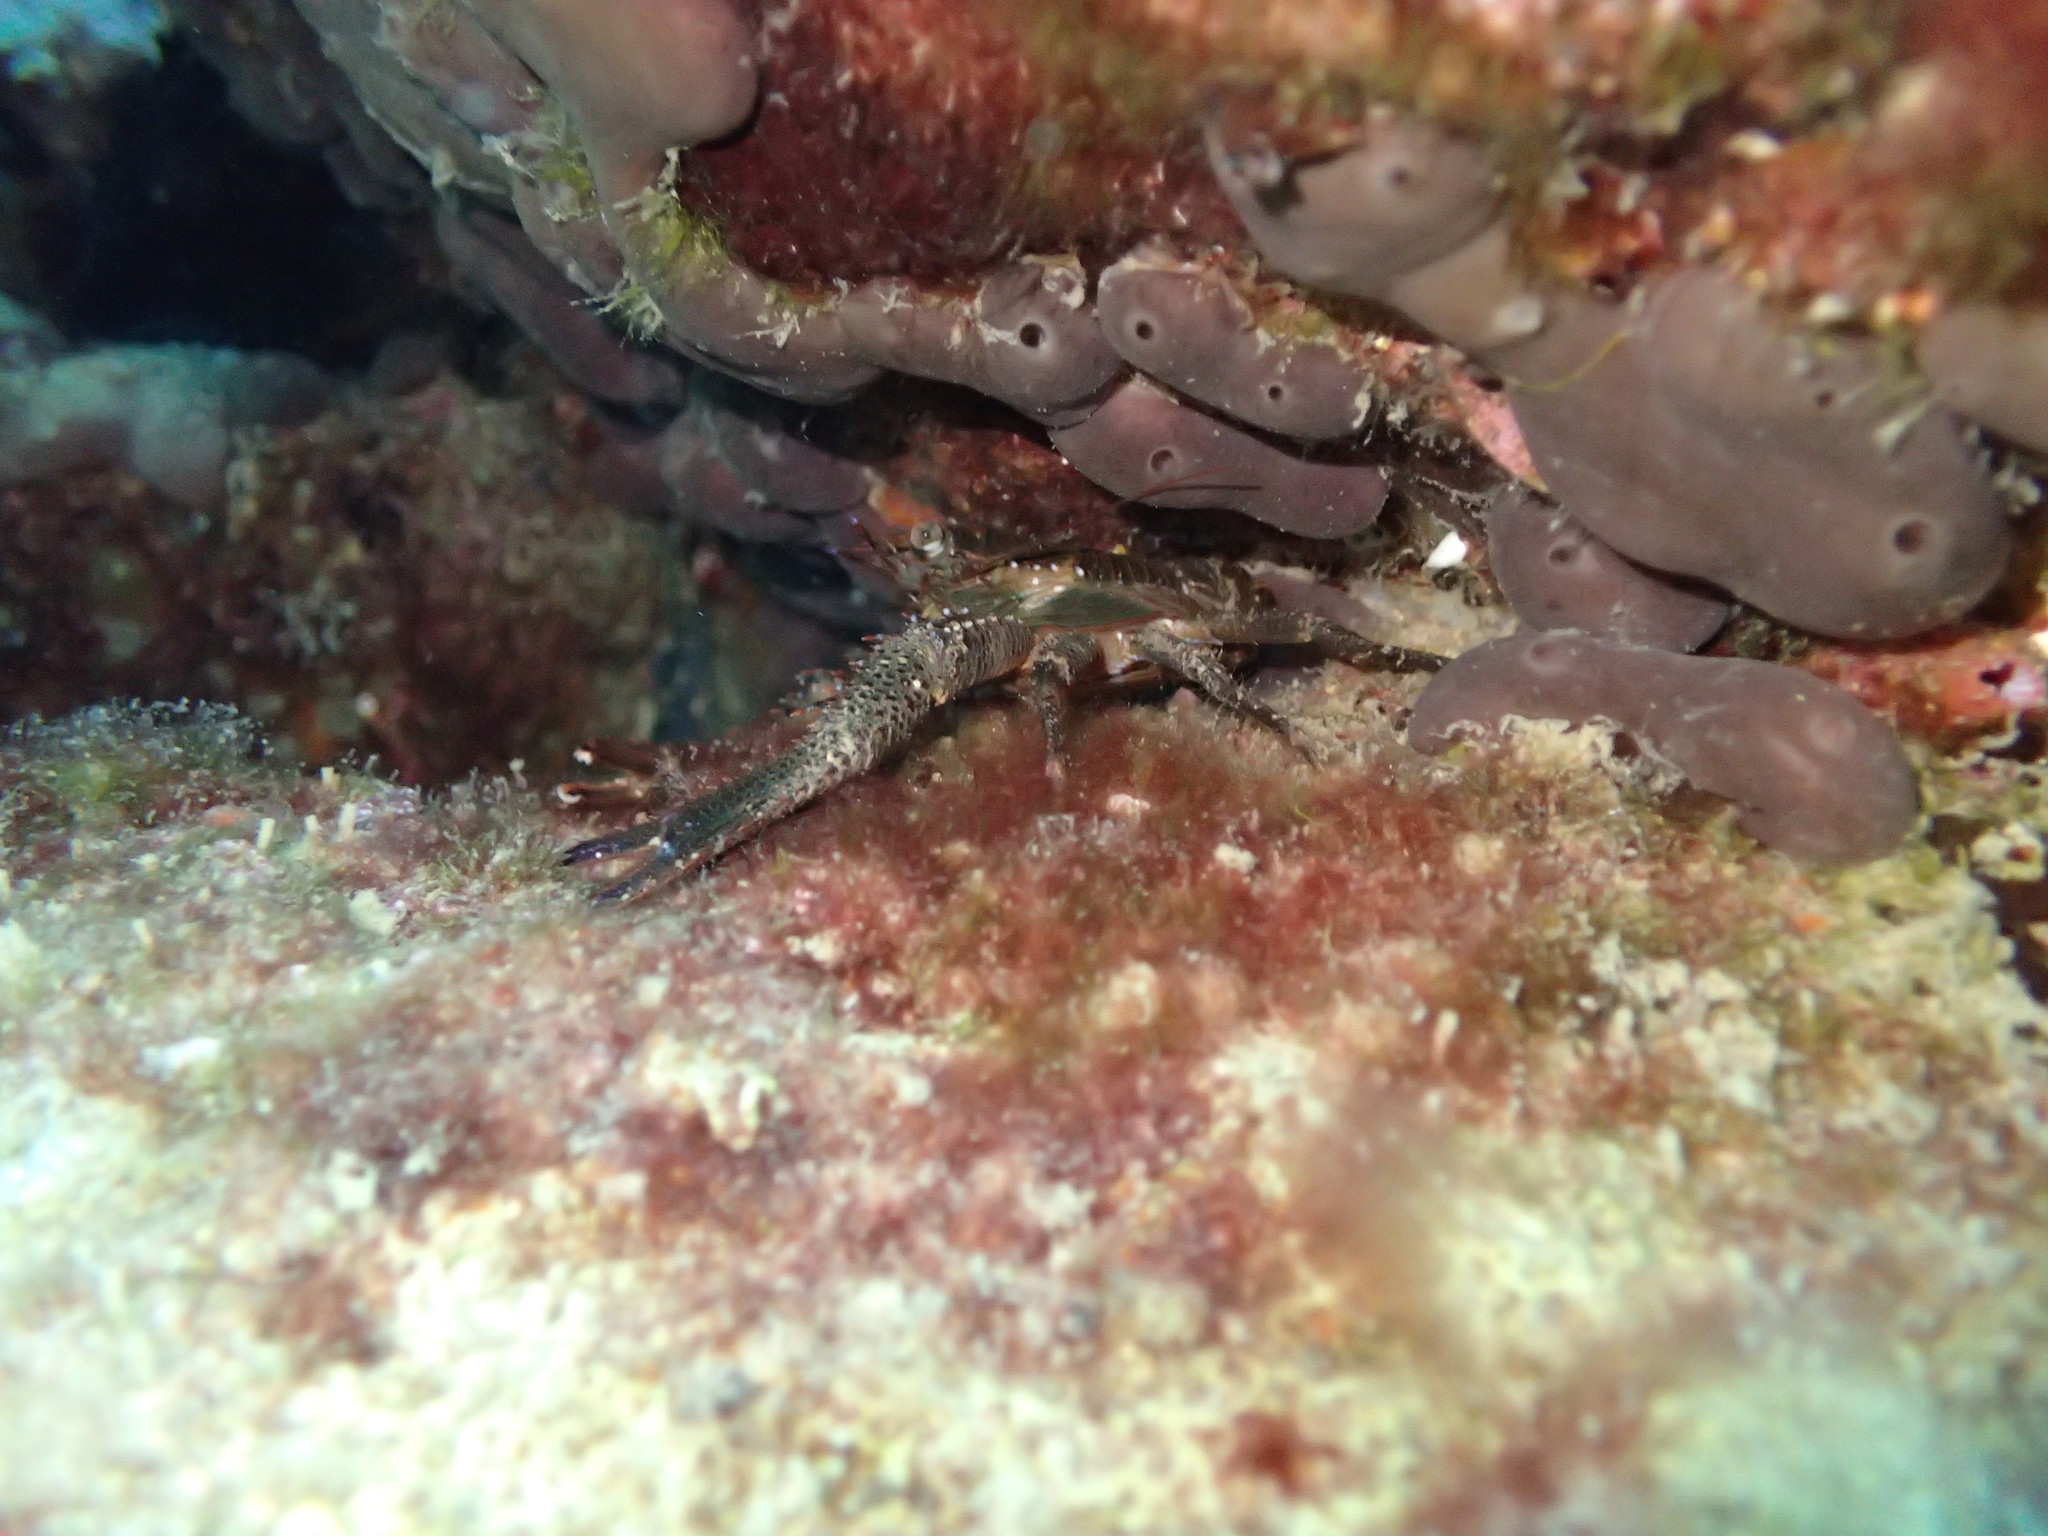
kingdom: Animalia
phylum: Arthropoda
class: Malacostraca
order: Decapoda
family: Galatheidae
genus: Galathea
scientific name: Galathea squamifera
